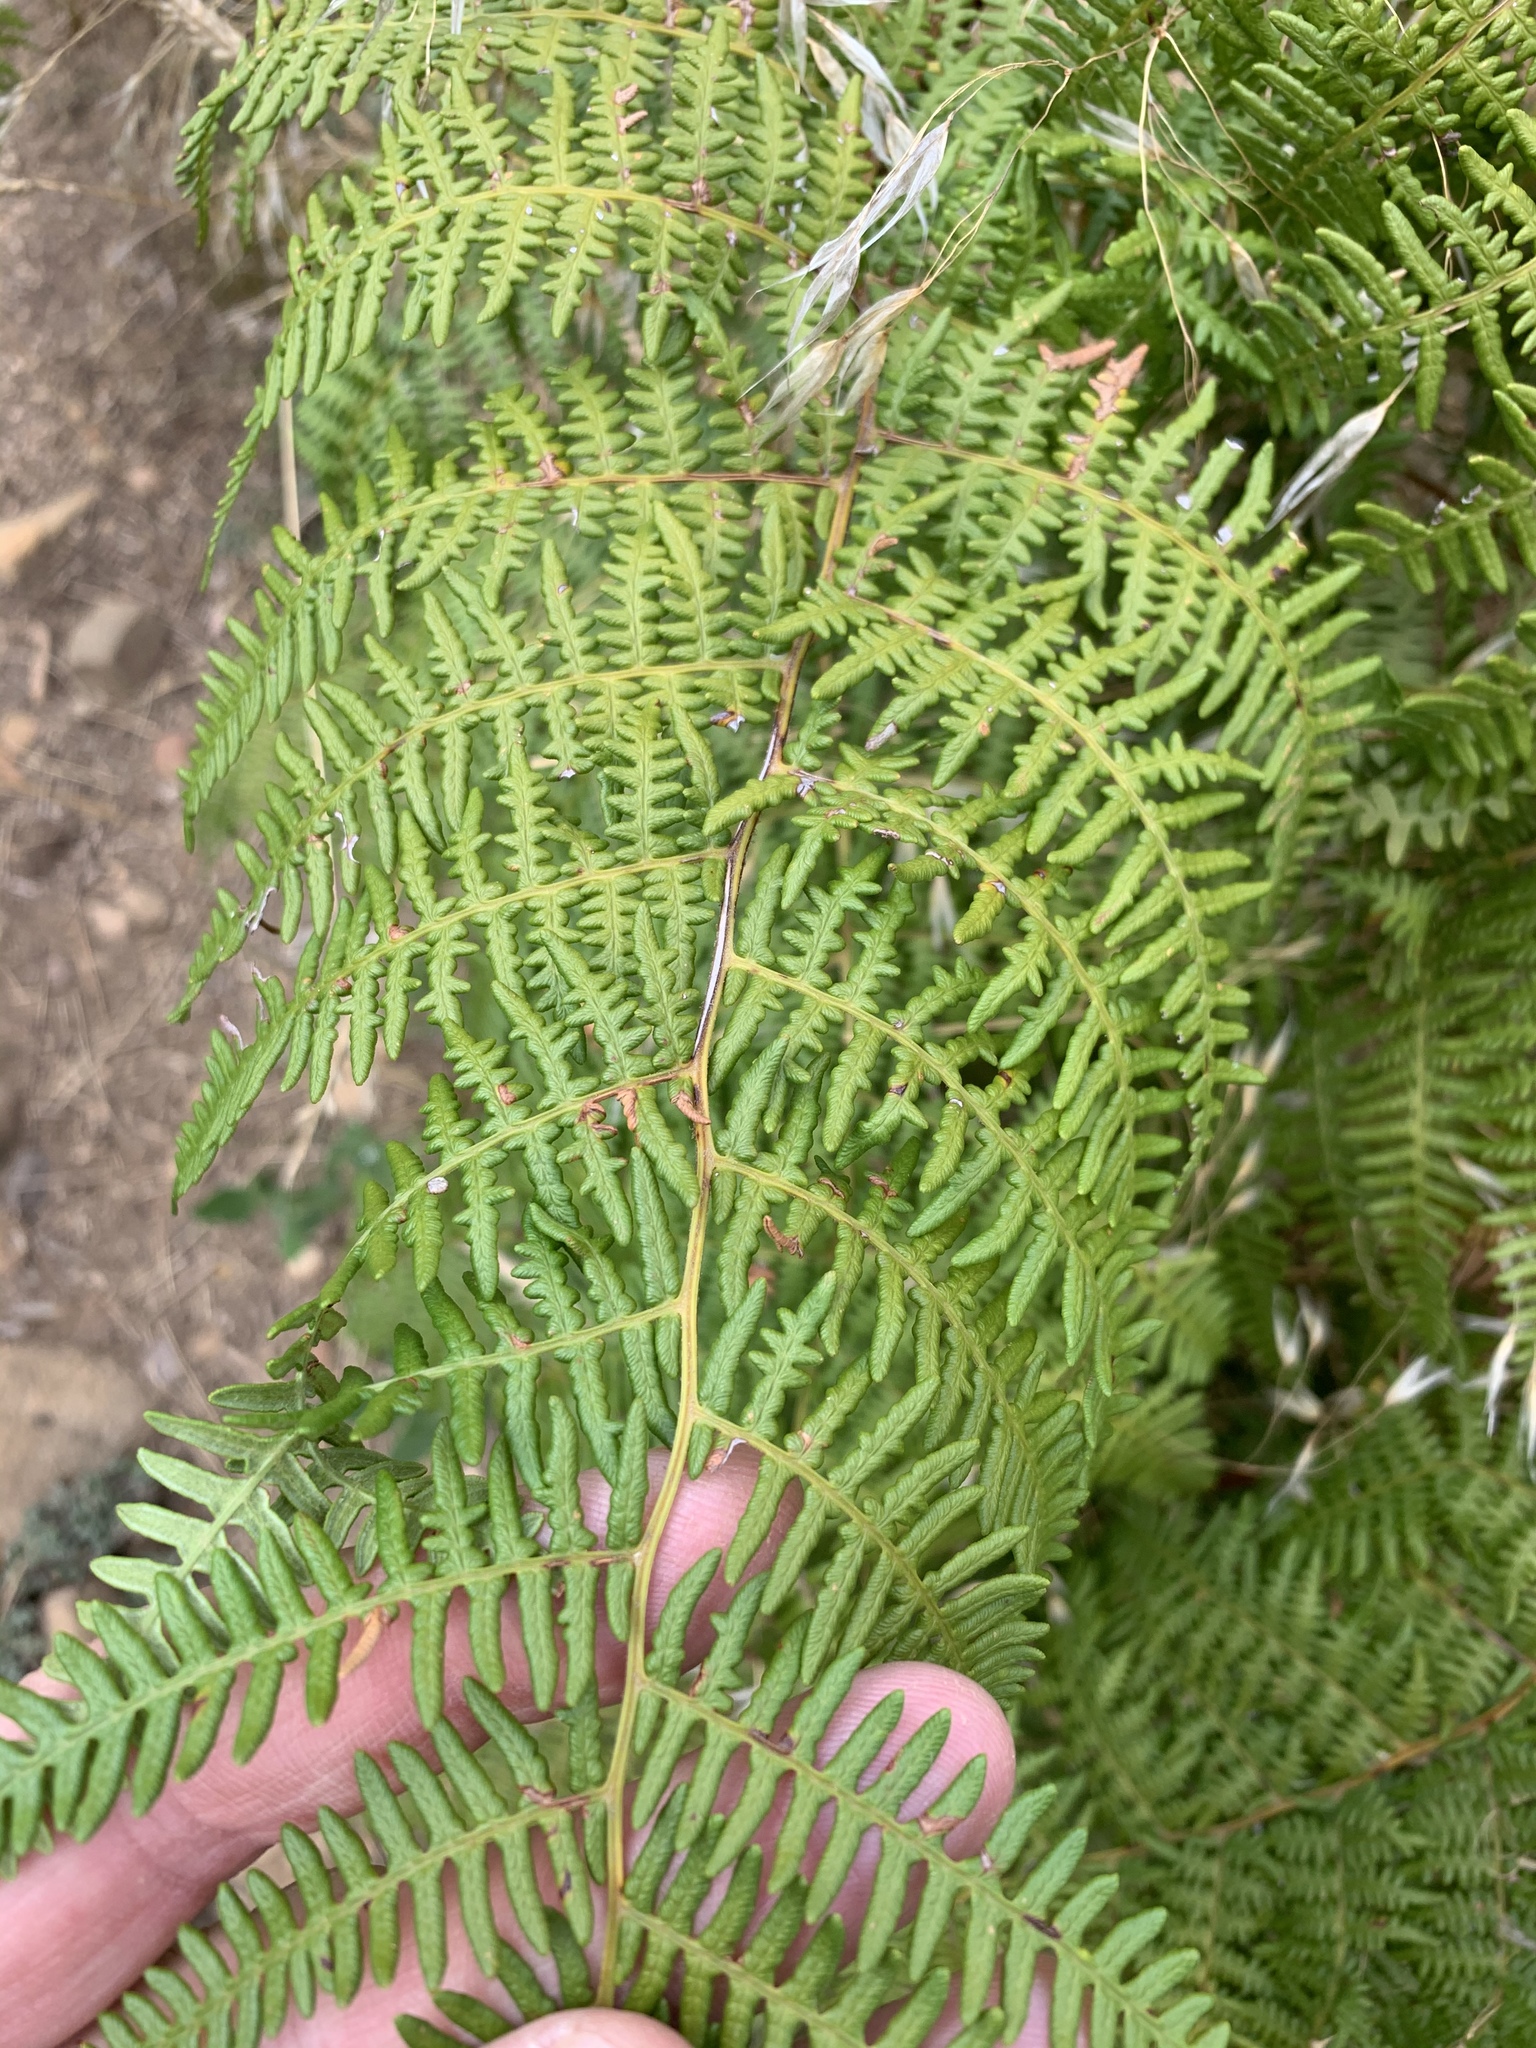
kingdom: Plantae
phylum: Tracheophyta
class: Polypodiopsida
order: Polypodiales
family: Dennstaedtiaceae
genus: Pteridium
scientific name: Pteridium aquilinum
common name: Bracken
